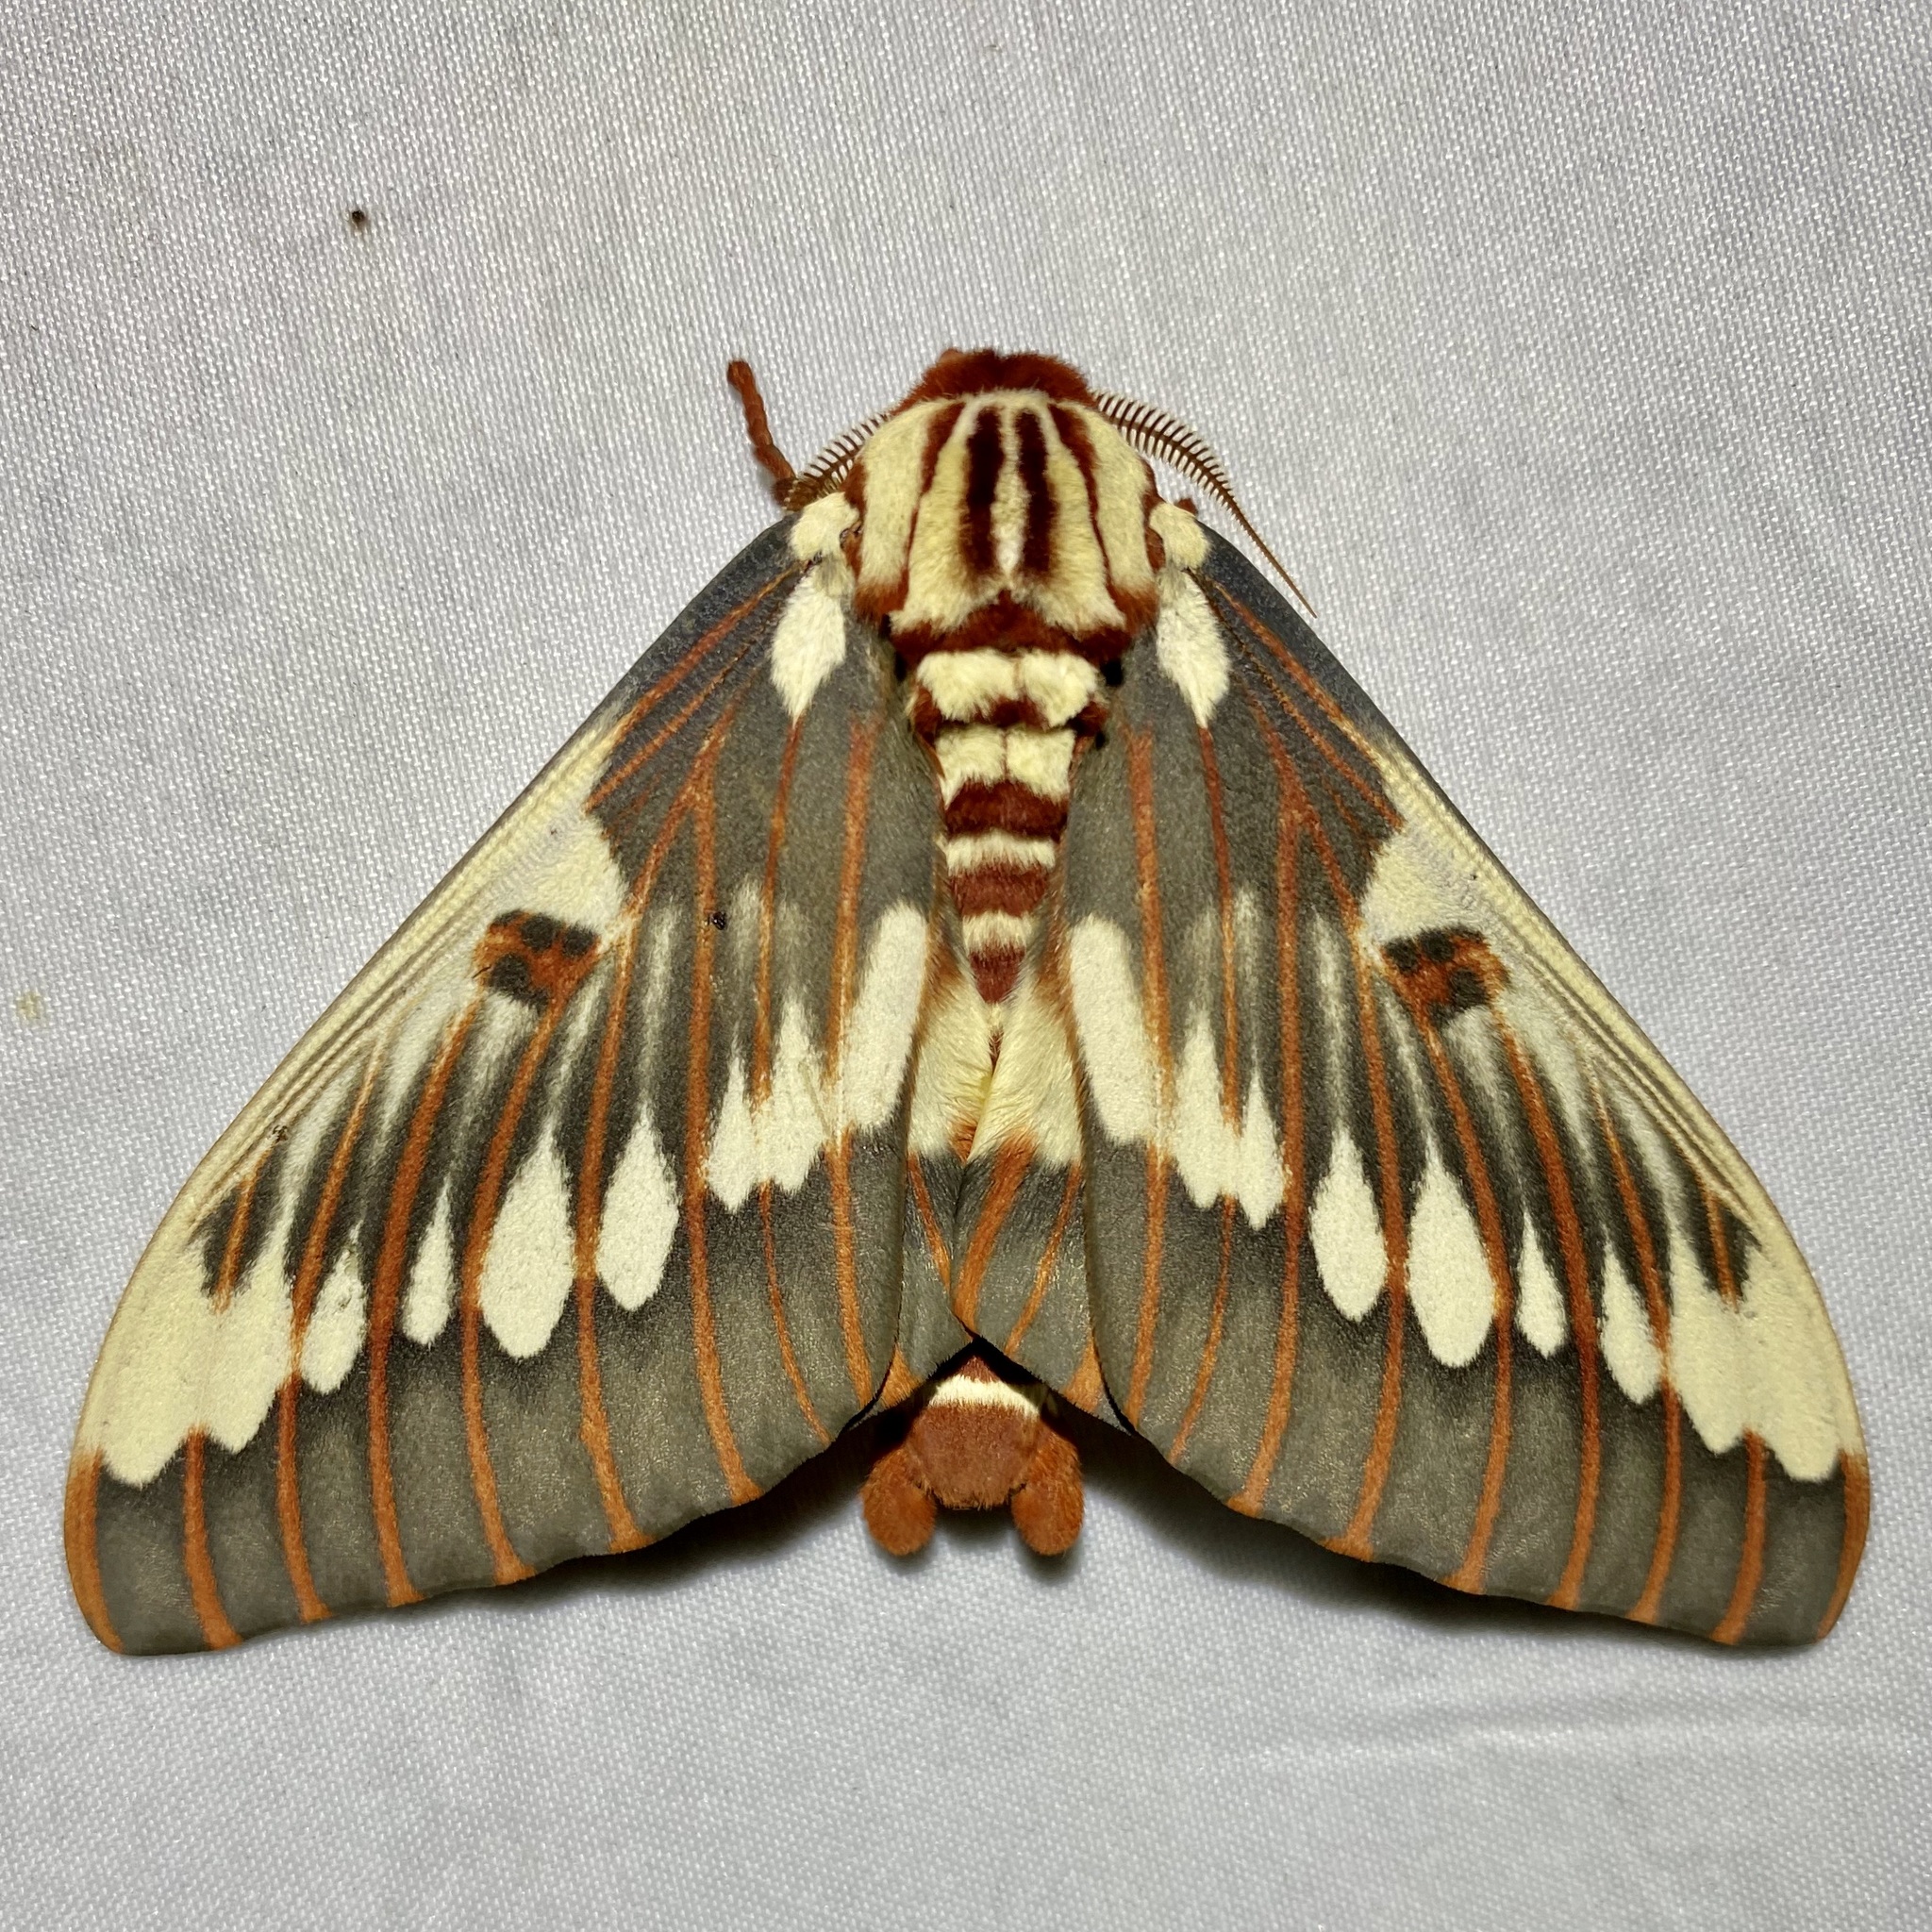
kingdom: Animalia
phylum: Arthropoda
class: Insecta
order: Lepidoptera
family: Saturniidae
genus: Citheronia
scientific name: Citheronia splendens
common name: Splendid royal moth
